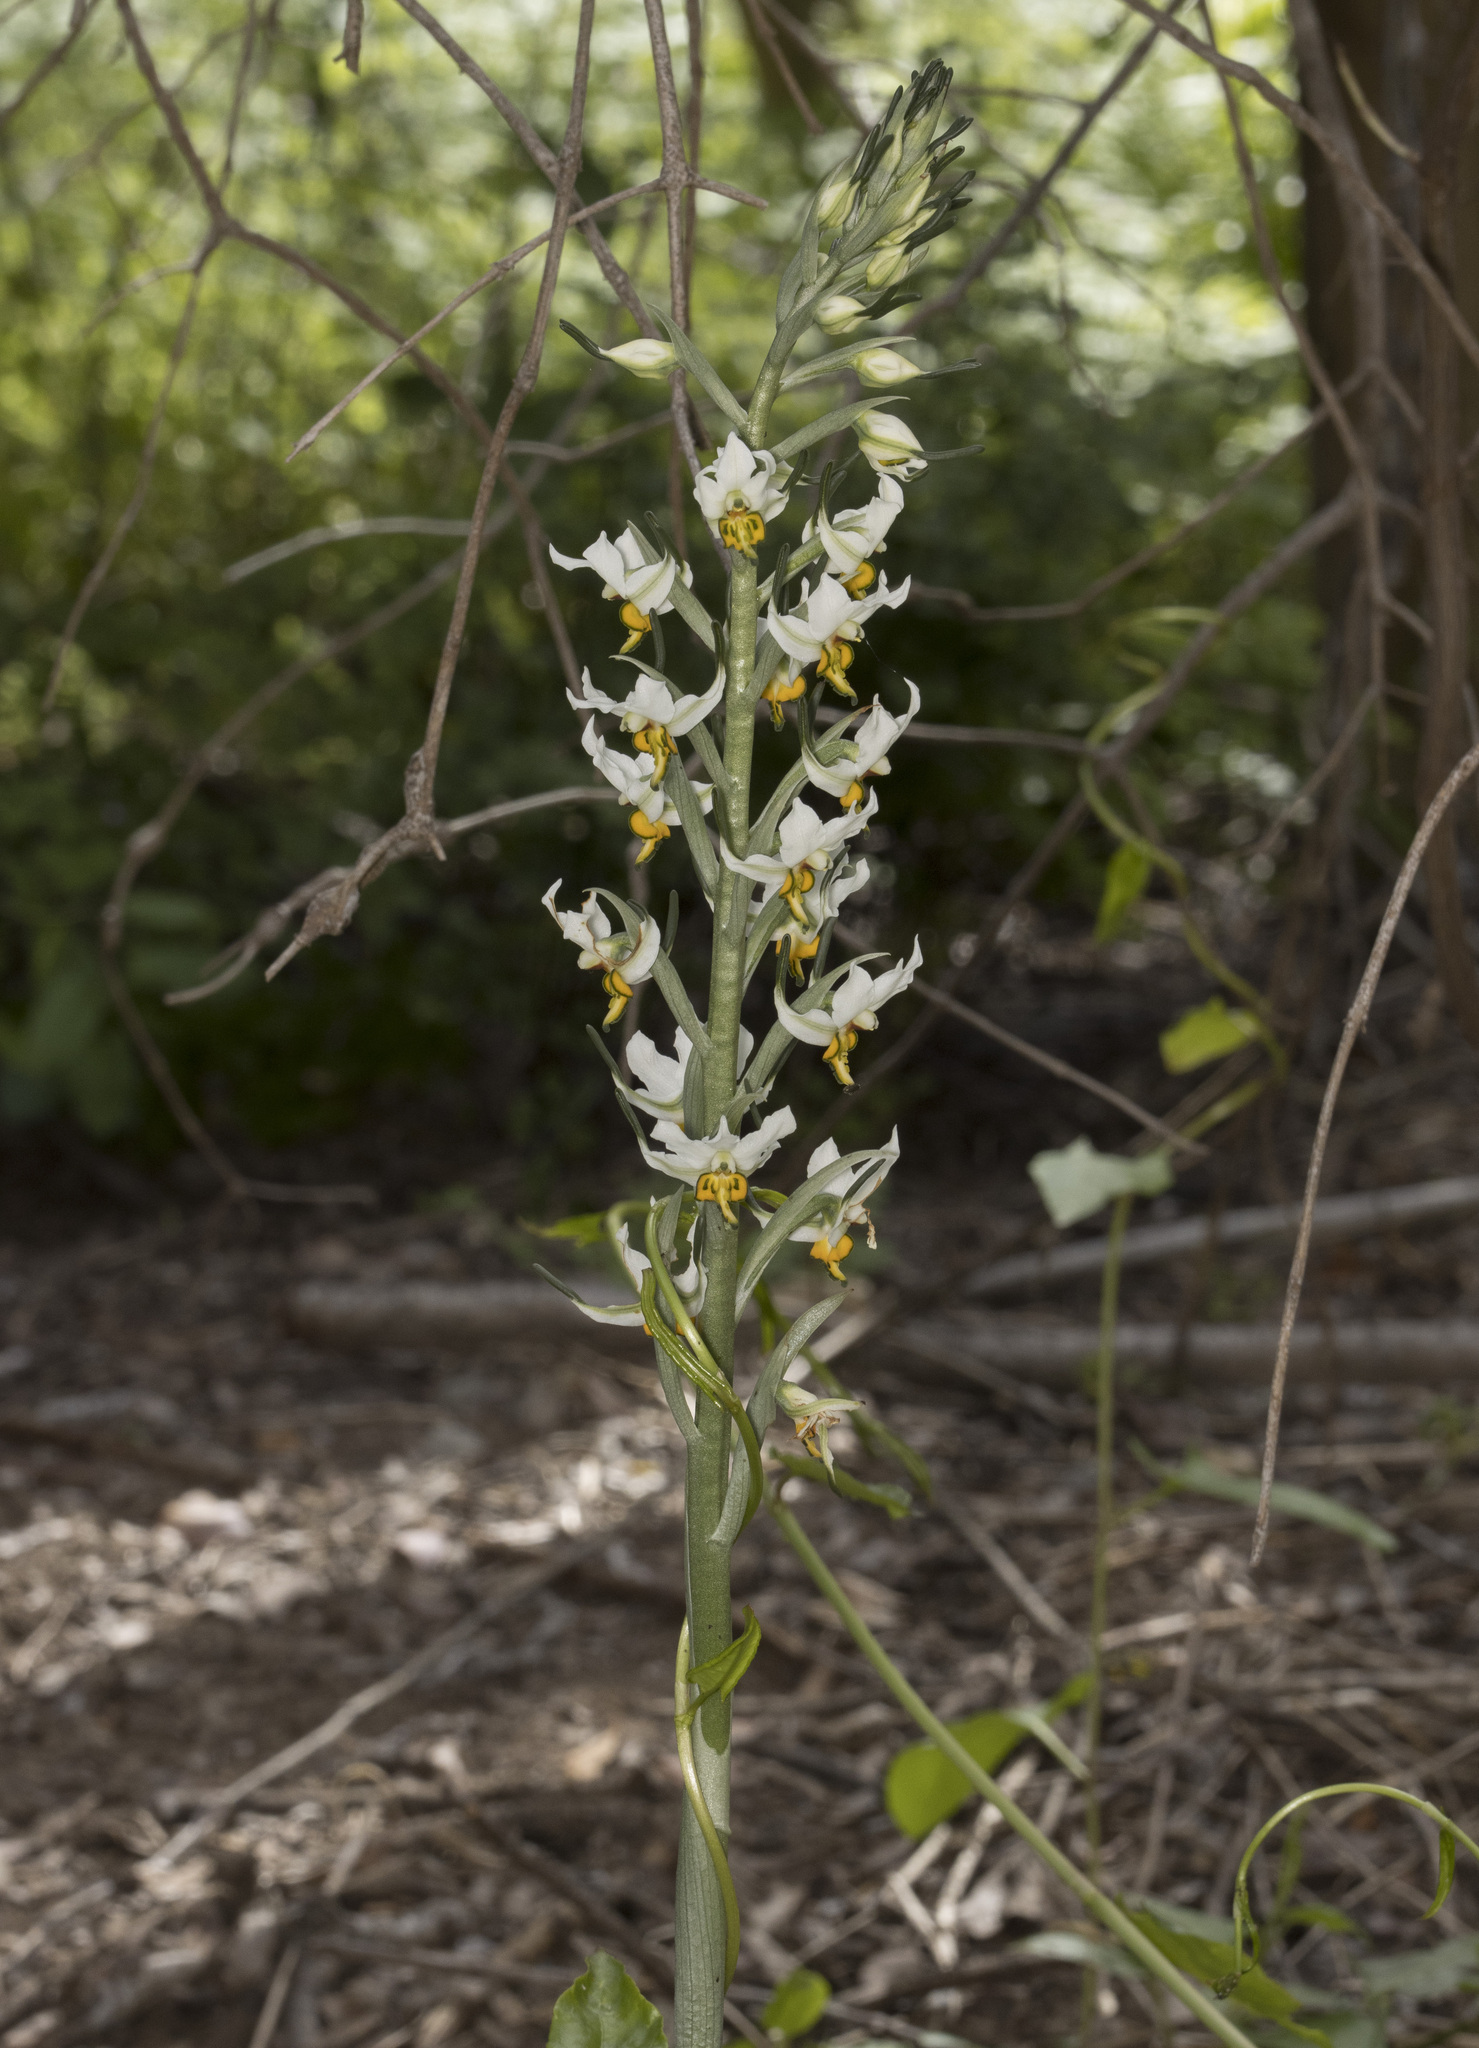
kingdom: Plantae
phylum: Tracheophyta
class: Liliopsida
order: Asparagales
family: Orchidaceae
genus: Gavilea
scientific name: Gavilea longibracteata
